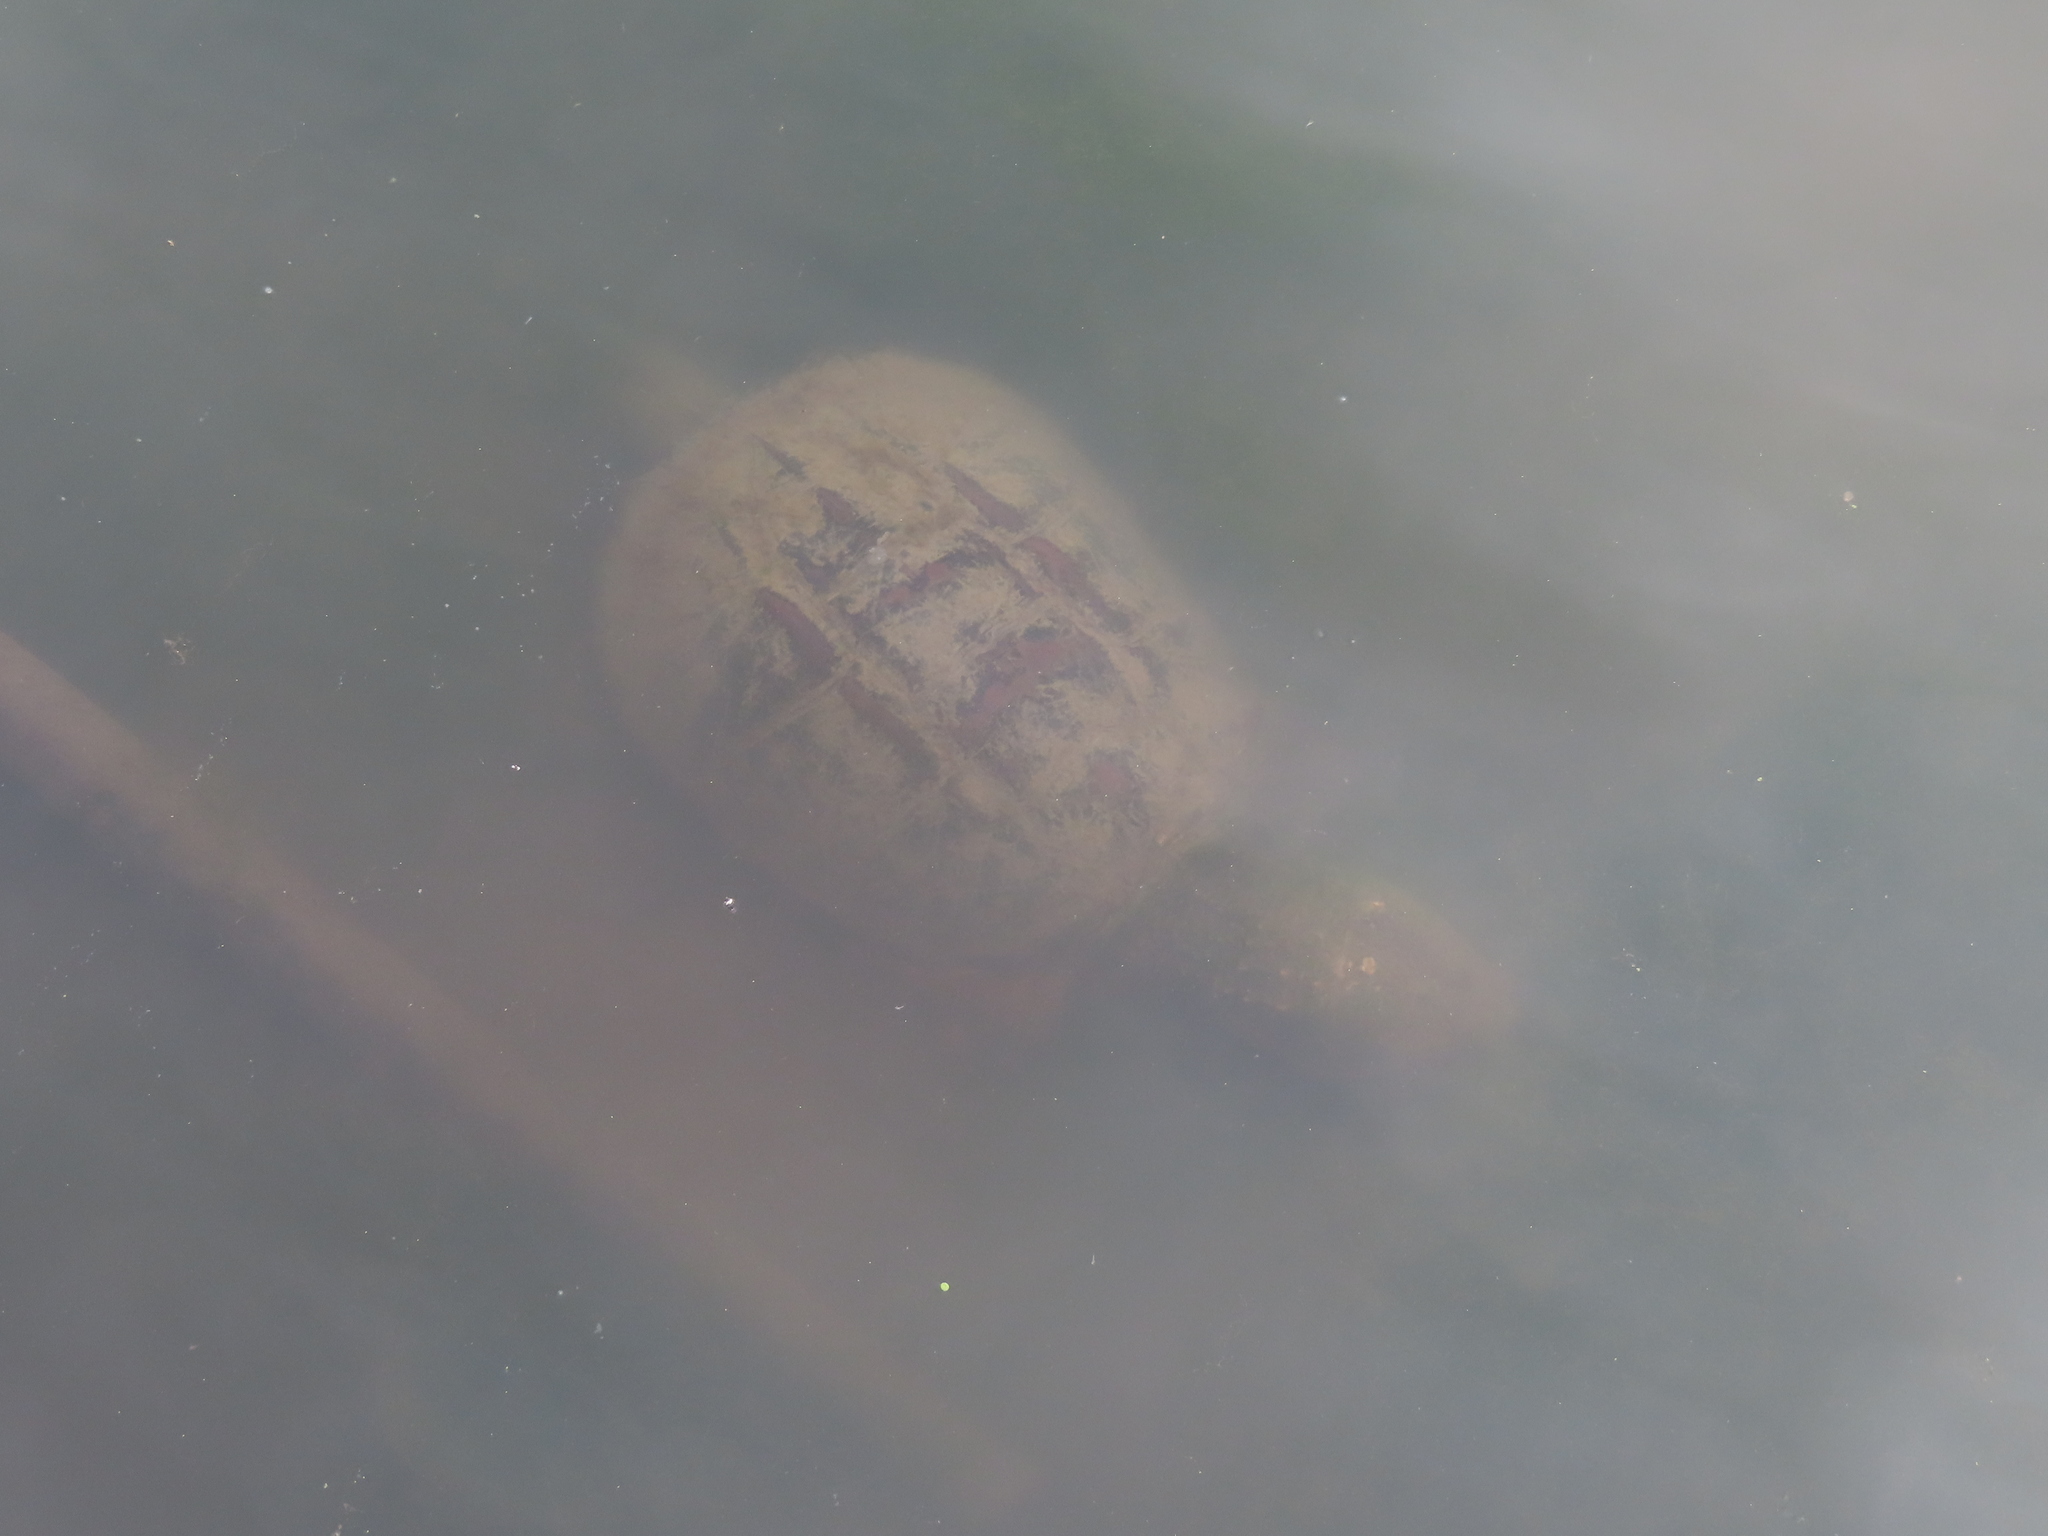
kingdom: Animalia
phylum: Chordata
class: Testudines
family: Chelydridae
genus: Chelydra
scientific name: Chelydra serpentina
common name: Common snapping turtle
